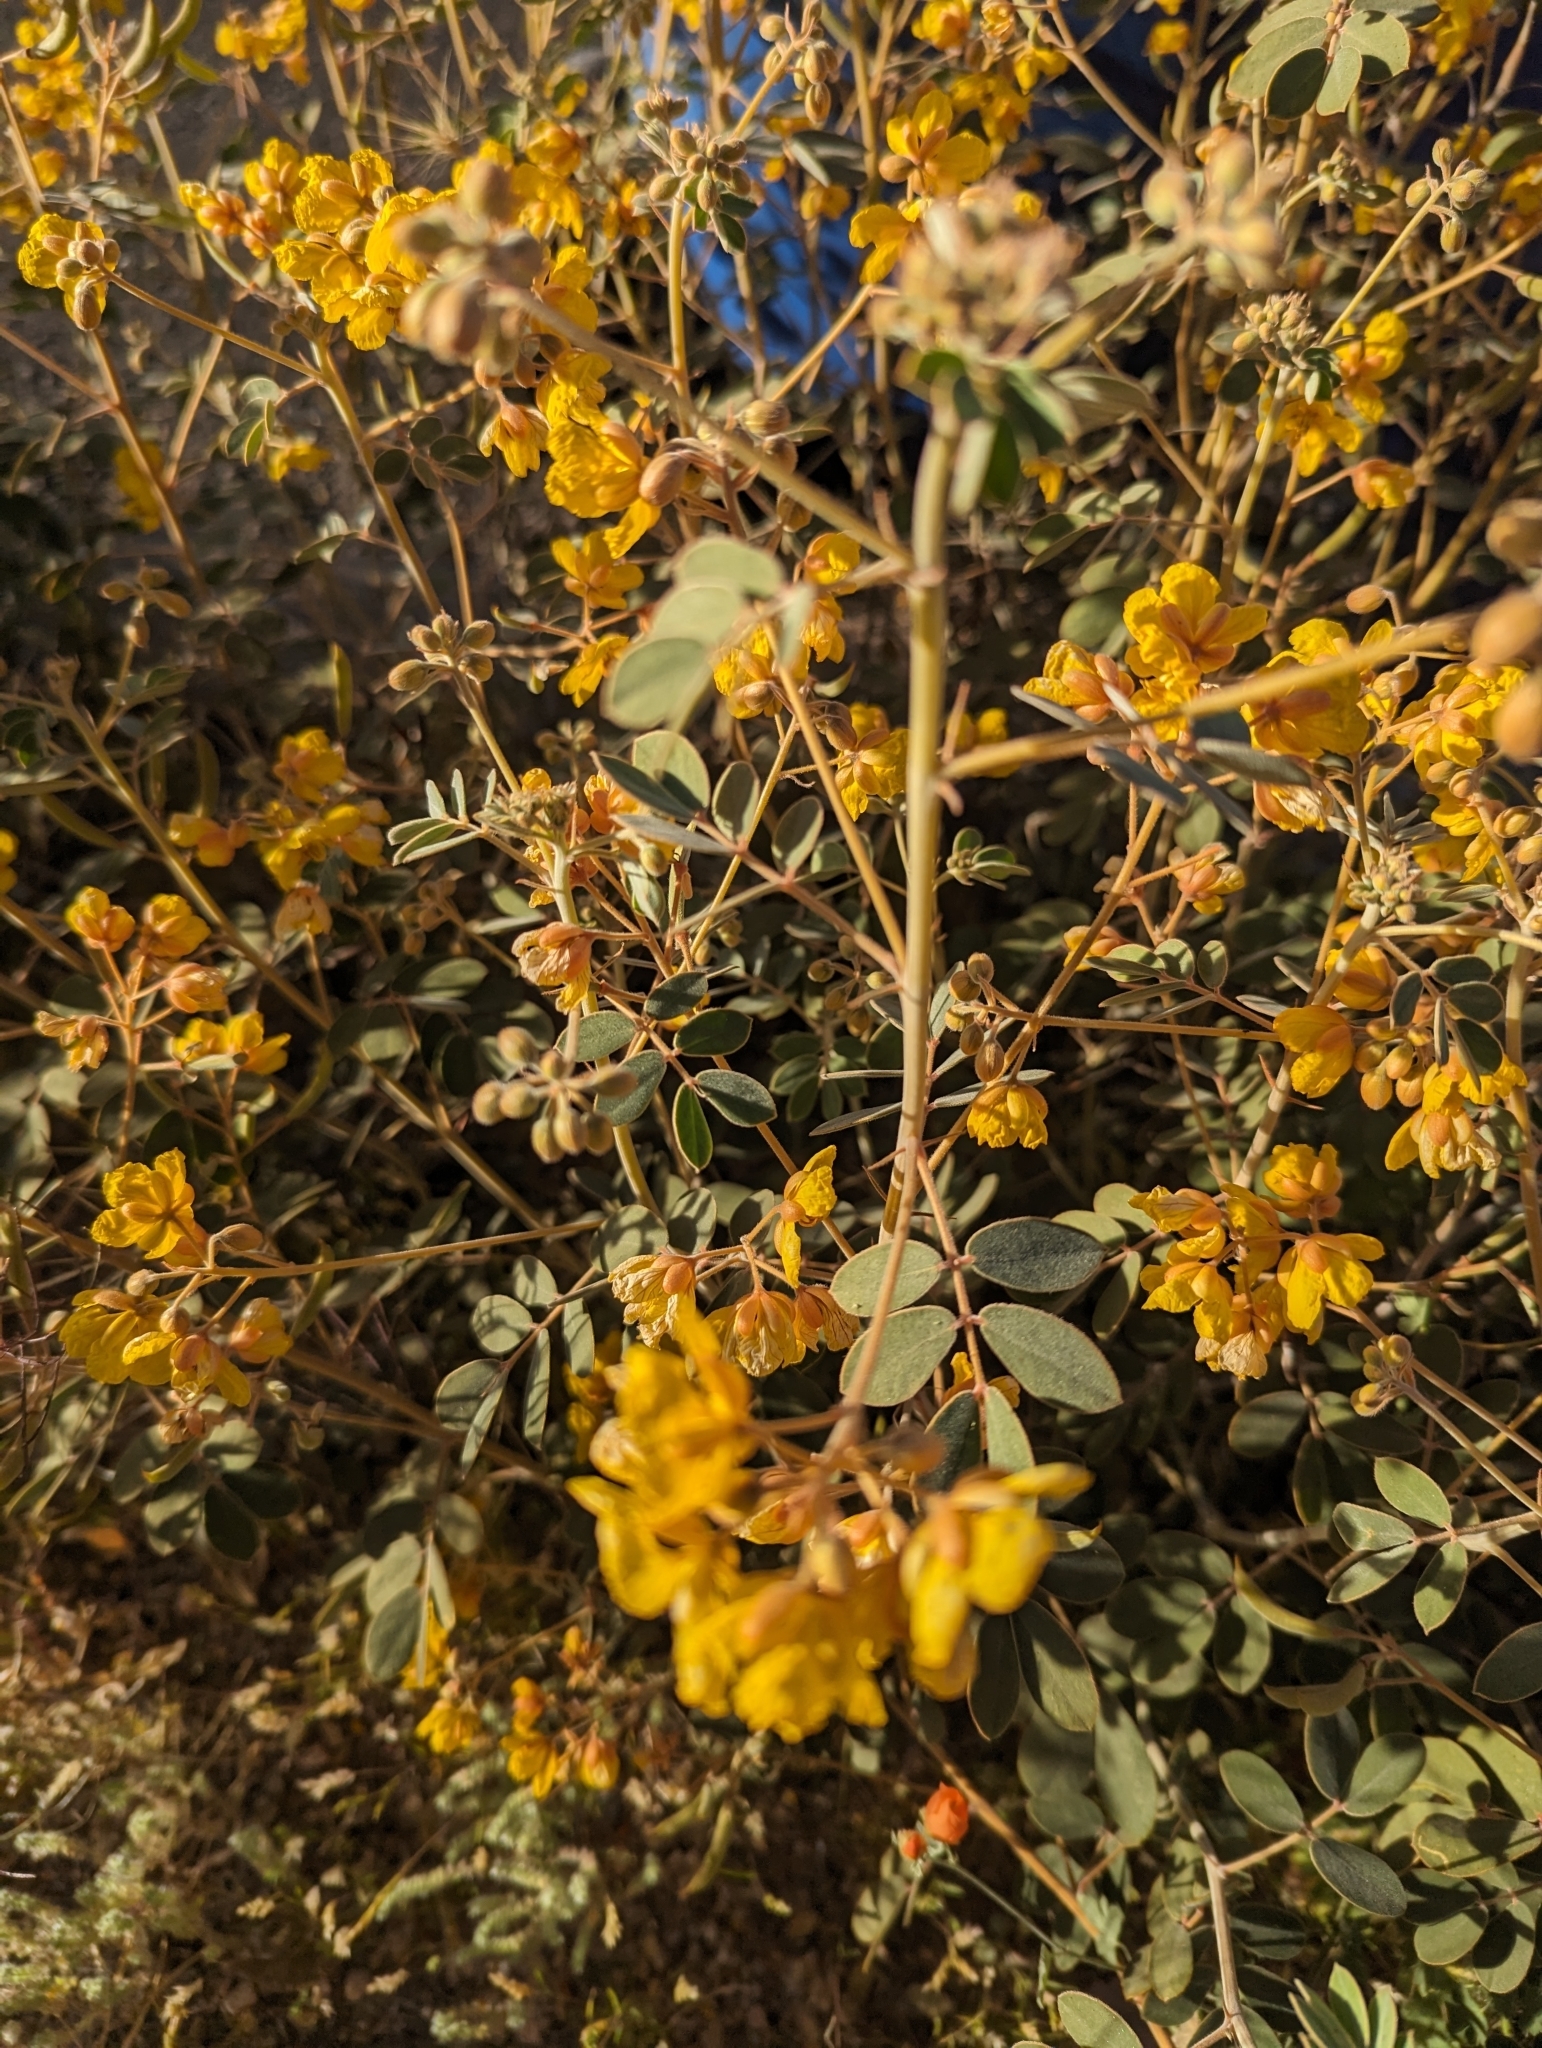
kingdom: Plantae
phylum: Tracheophyta
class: Magnoliopsida
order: Fabales
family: Fabaceae
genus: Senna
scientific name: Senna covesii
